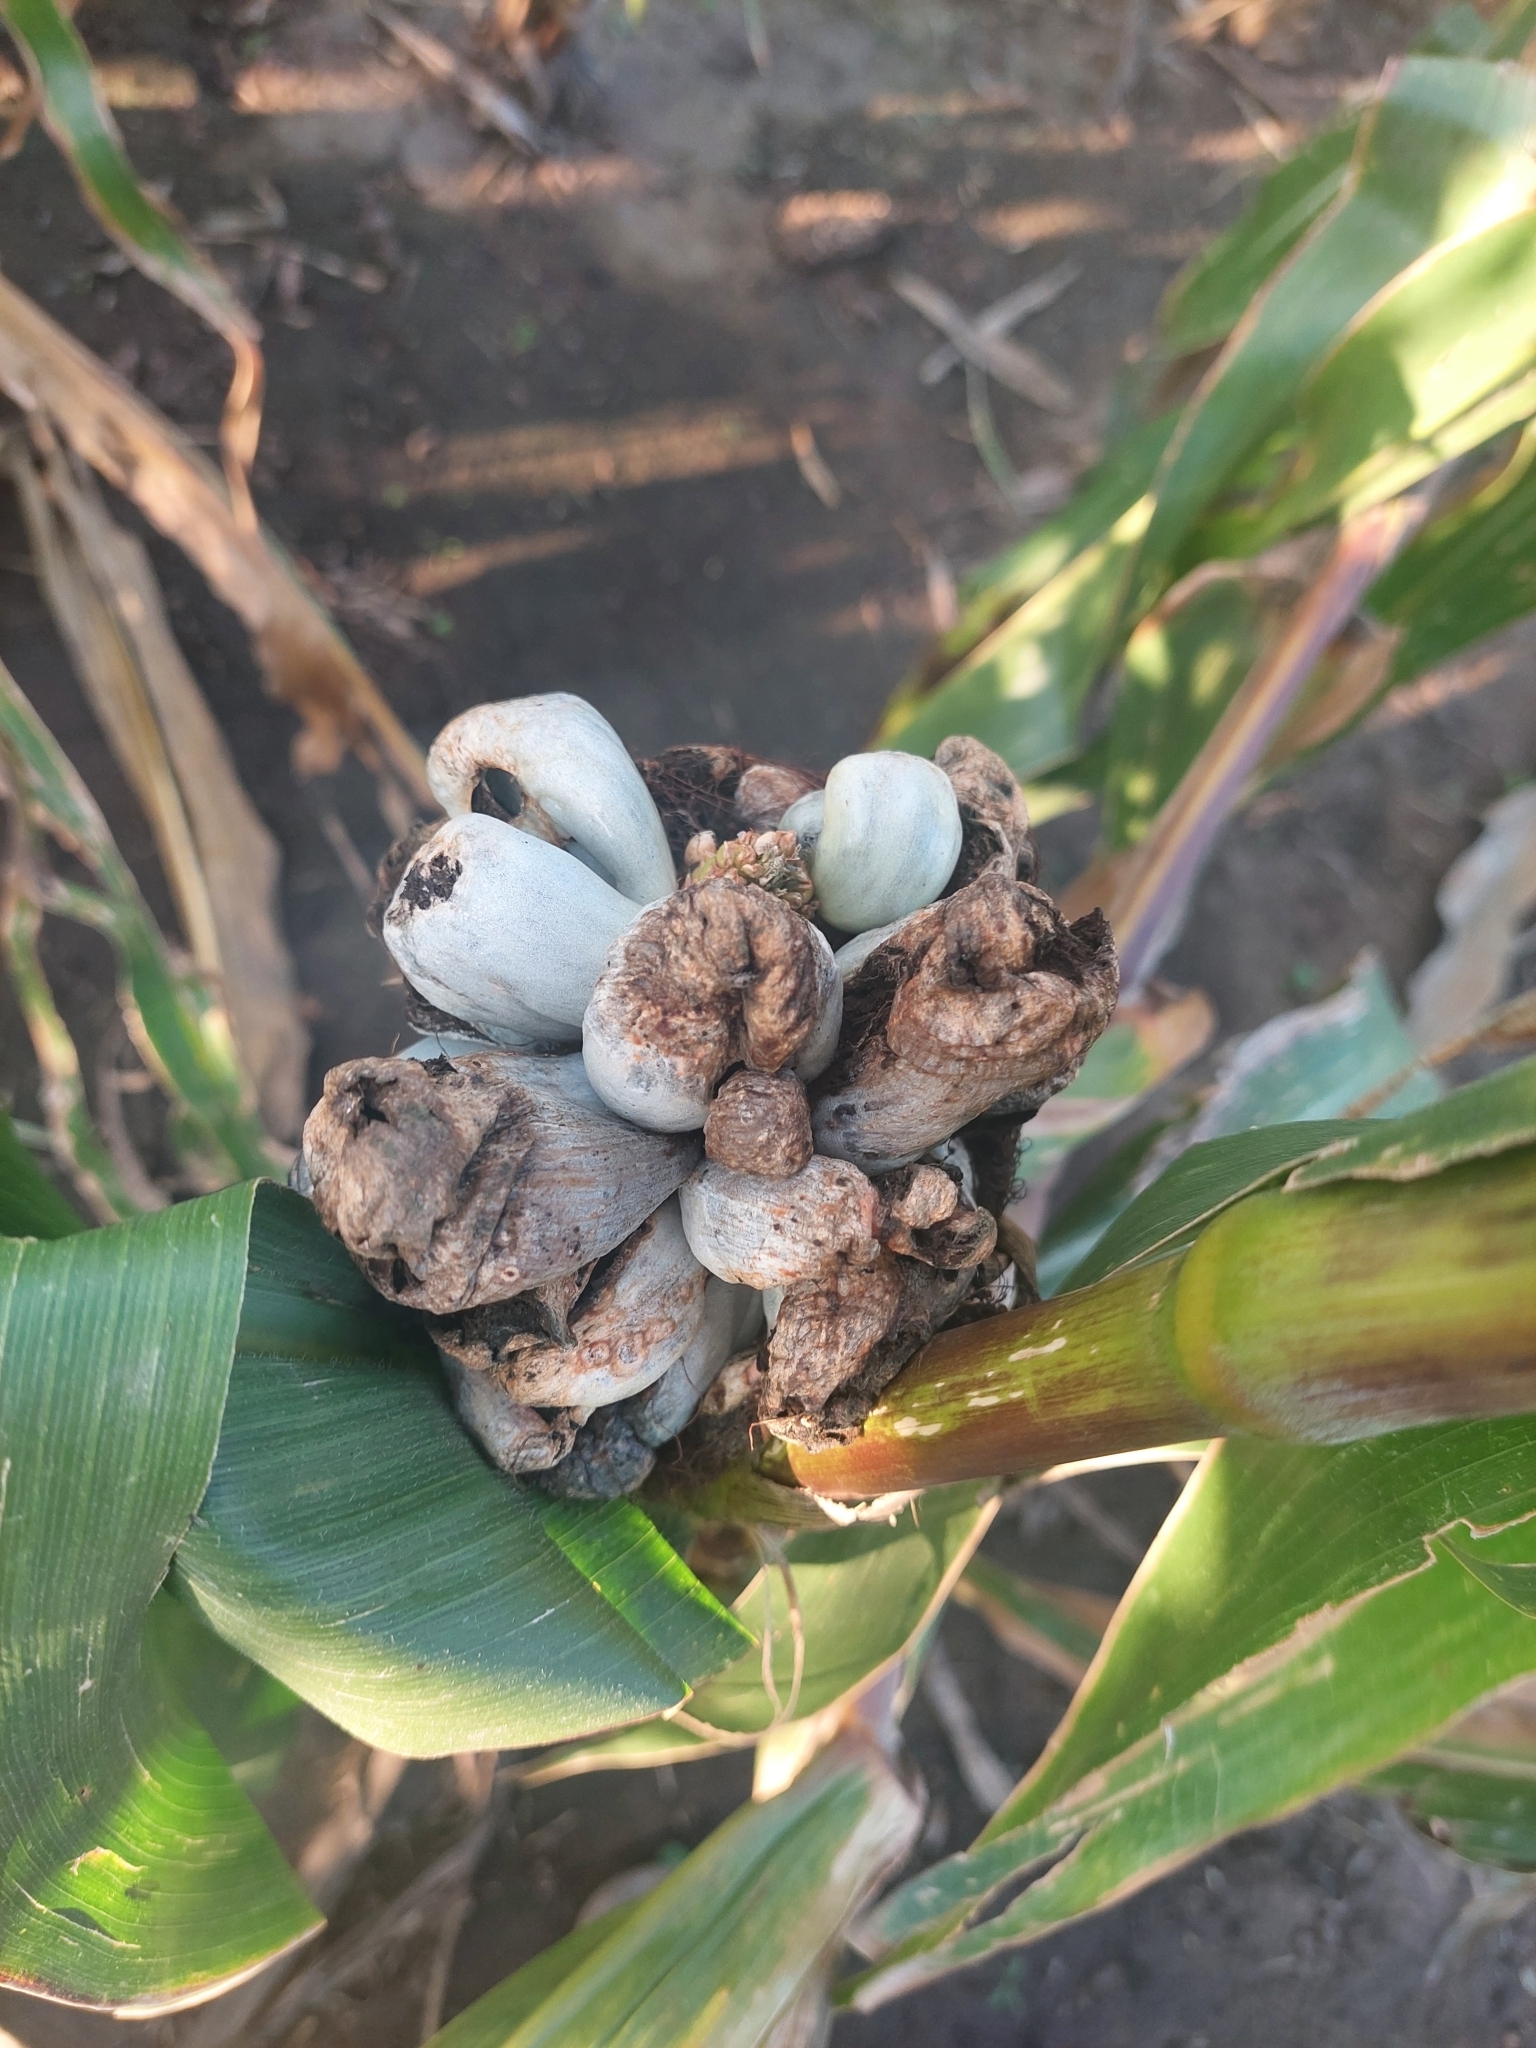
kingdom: Fungi
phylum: Basidiomycota
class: Ustilaginomycetes
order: Ustilaginales
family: Ustilaginaceae
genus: Mycosarcoma
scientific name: Mycosarcoma maydis
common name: Corn smut
